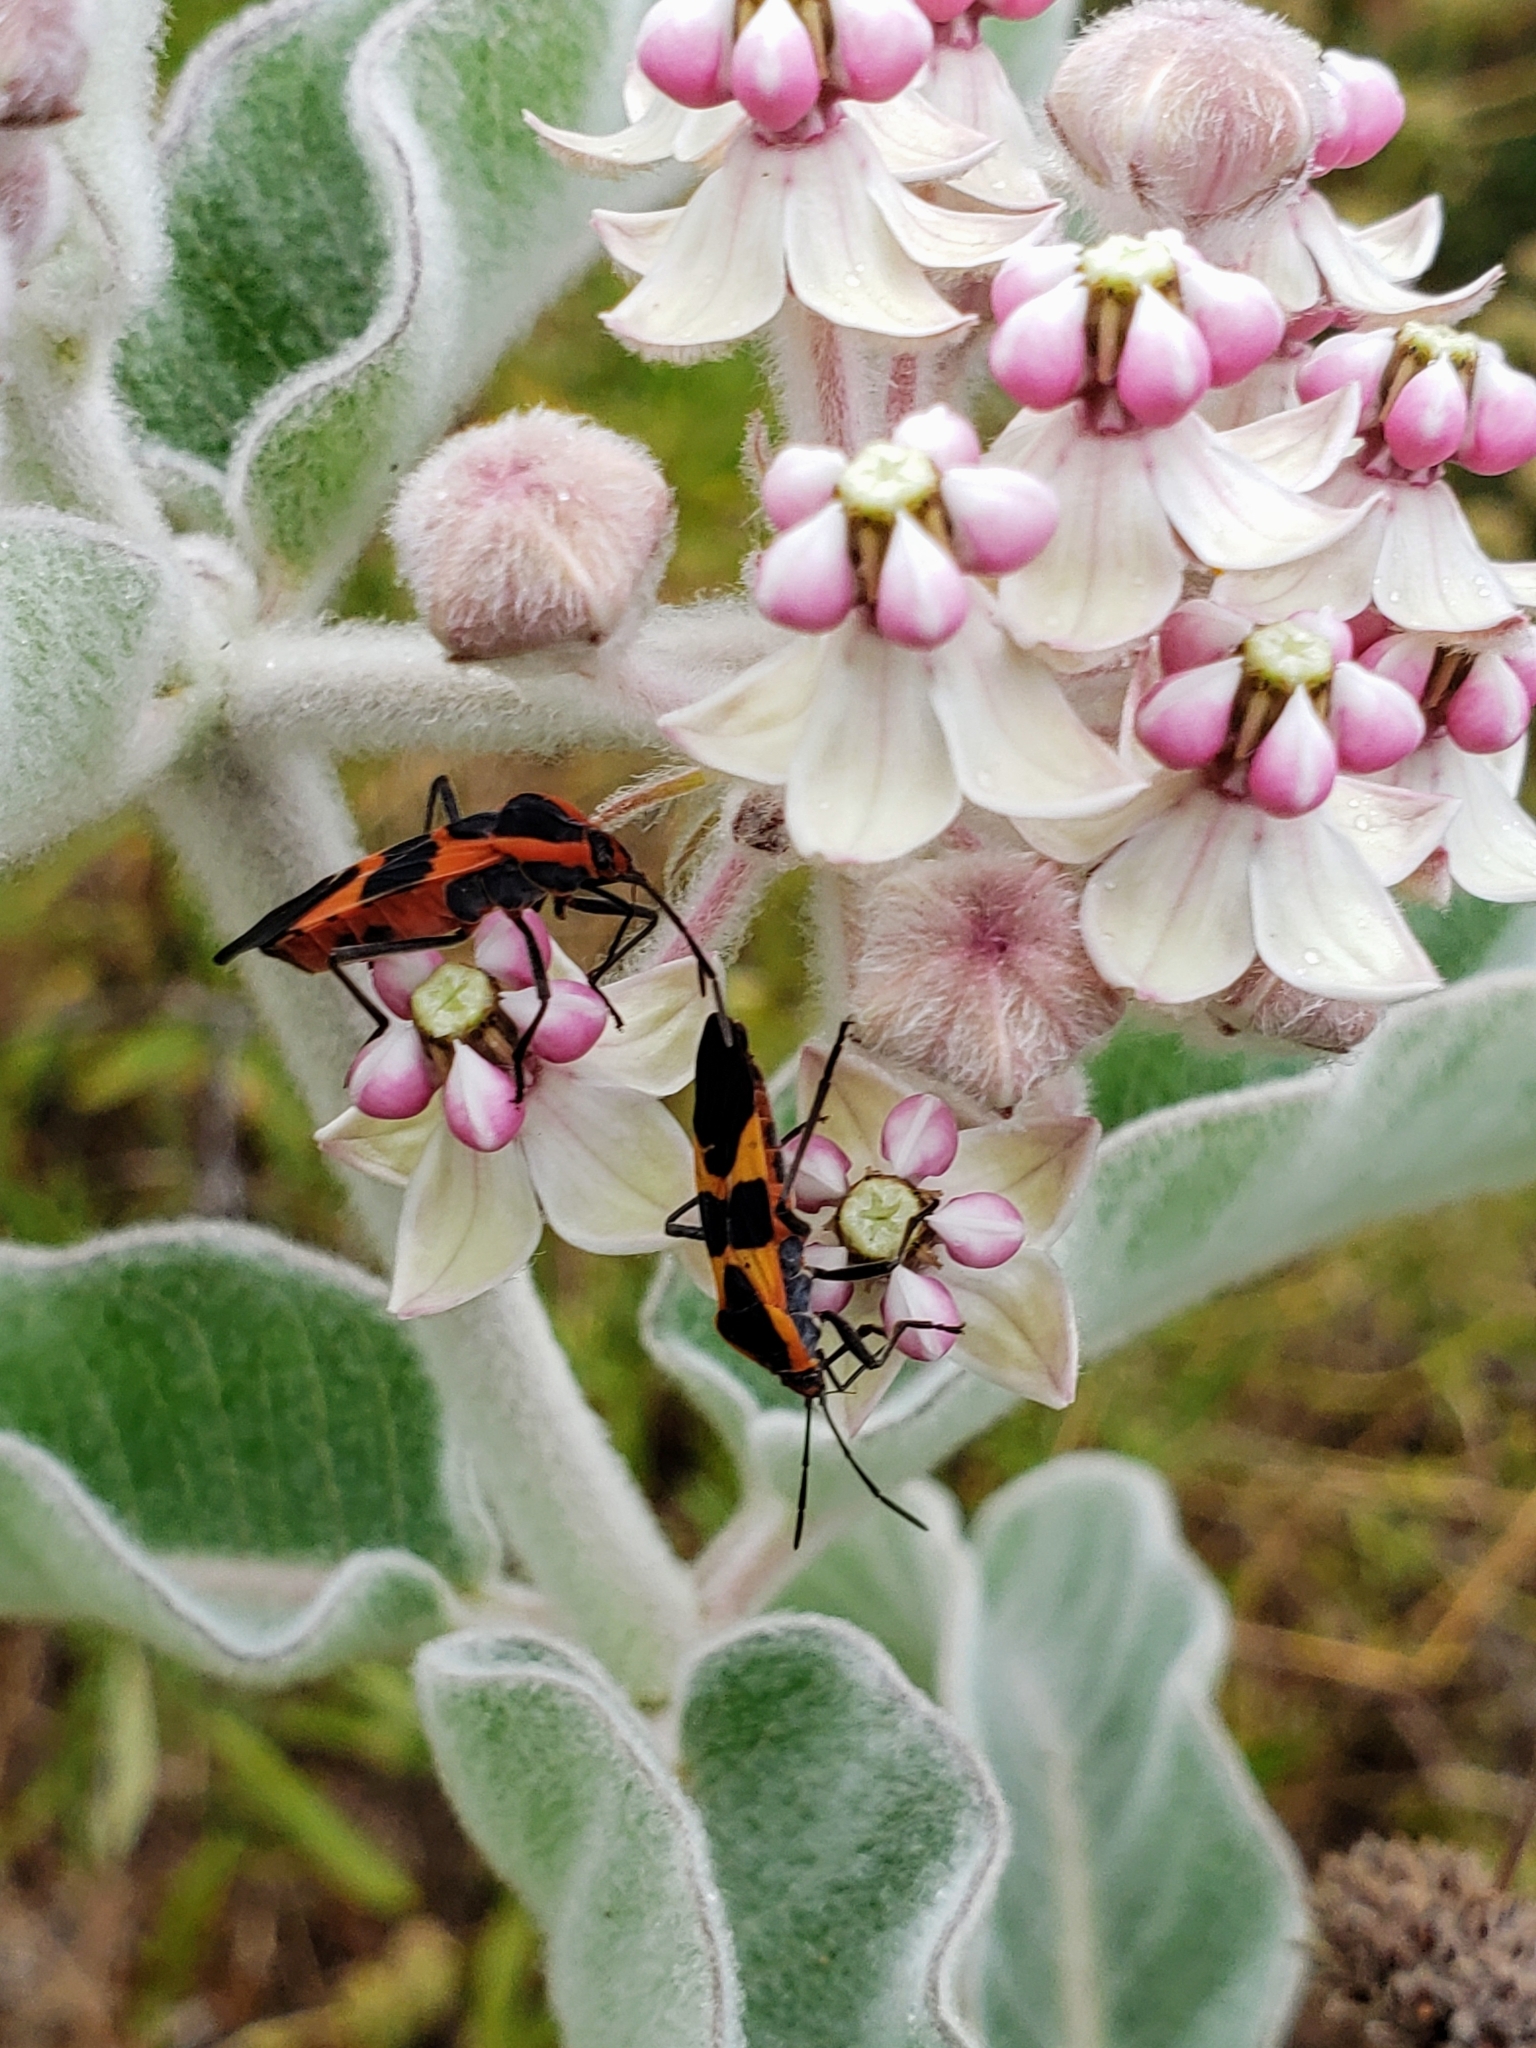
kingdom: Animalia
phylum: Arthropoda
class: Insecta
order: Hemiptera
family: Lygaeidae
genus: Oncopeltus
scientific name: Oncopeltus fasciatus
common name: Large milkweed bug
